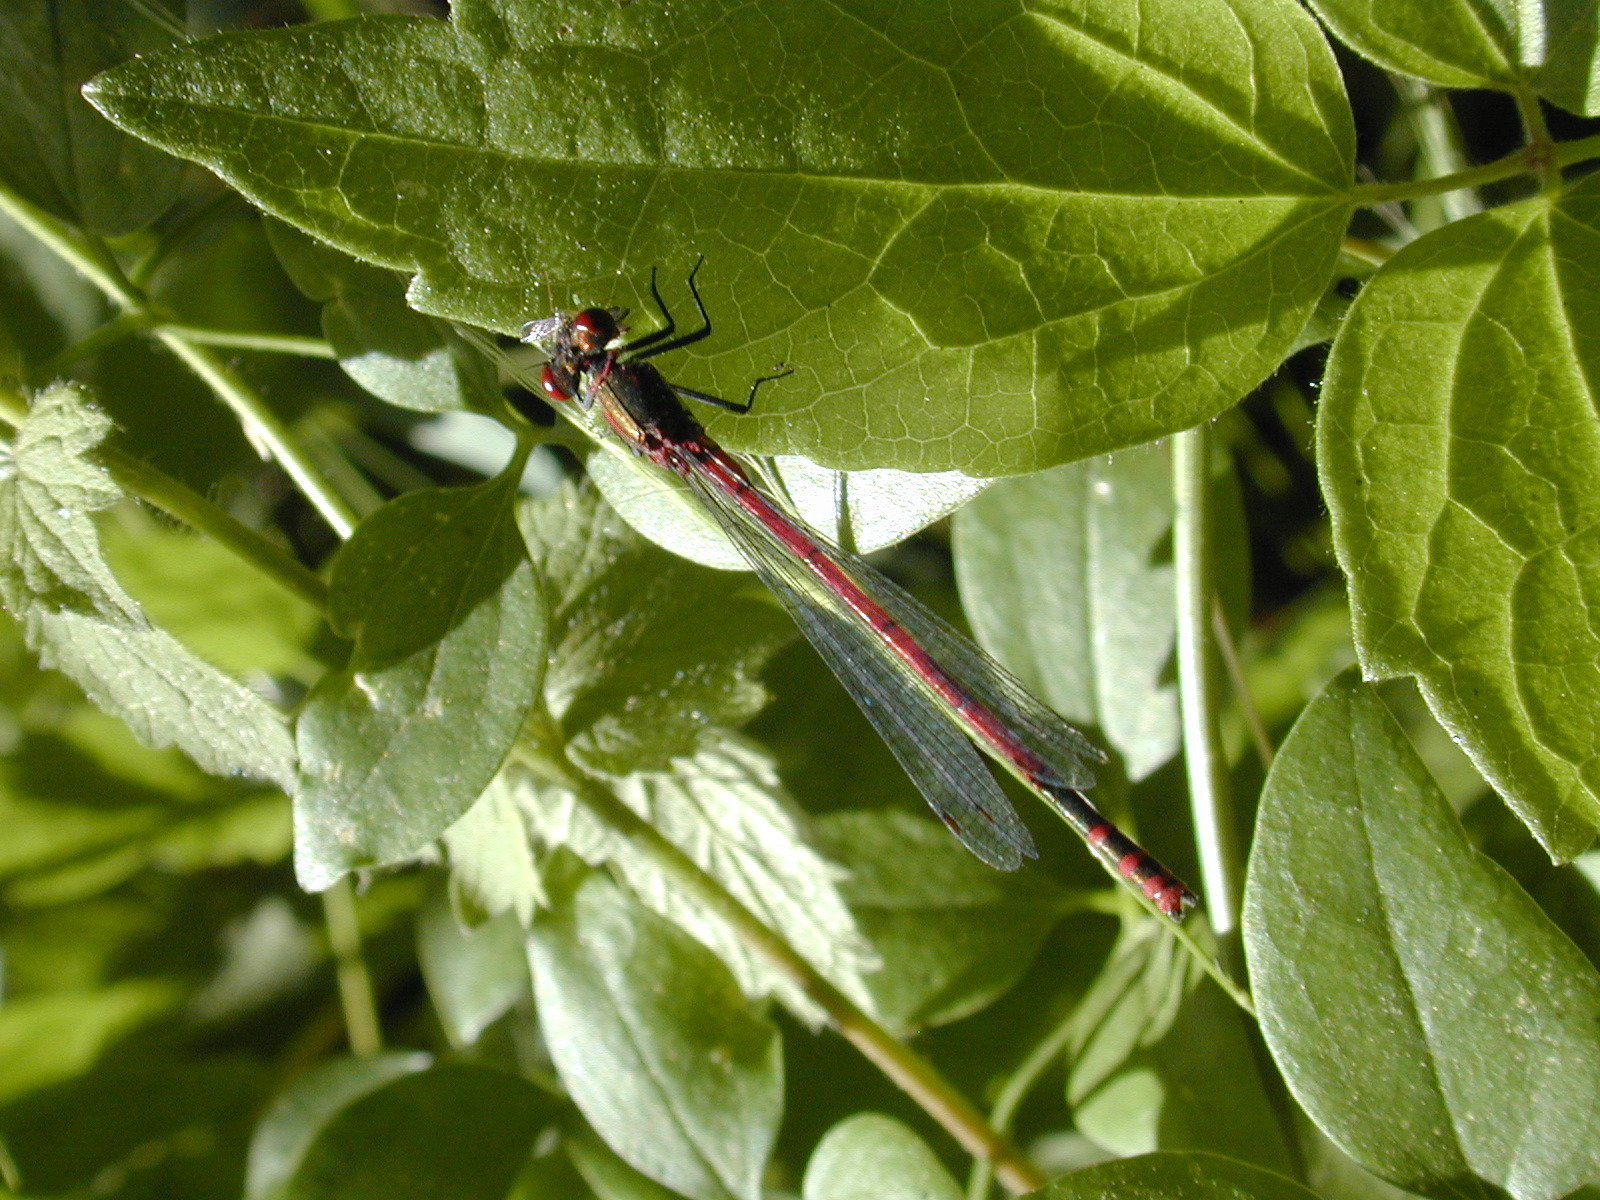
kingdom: Animalia
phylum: Arthropoda
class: Insecta
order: Odonata
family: Coenagrionidae
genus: Pyrrhosoma
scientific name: Pyrrhosoma nymphula
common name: Large red damsel
